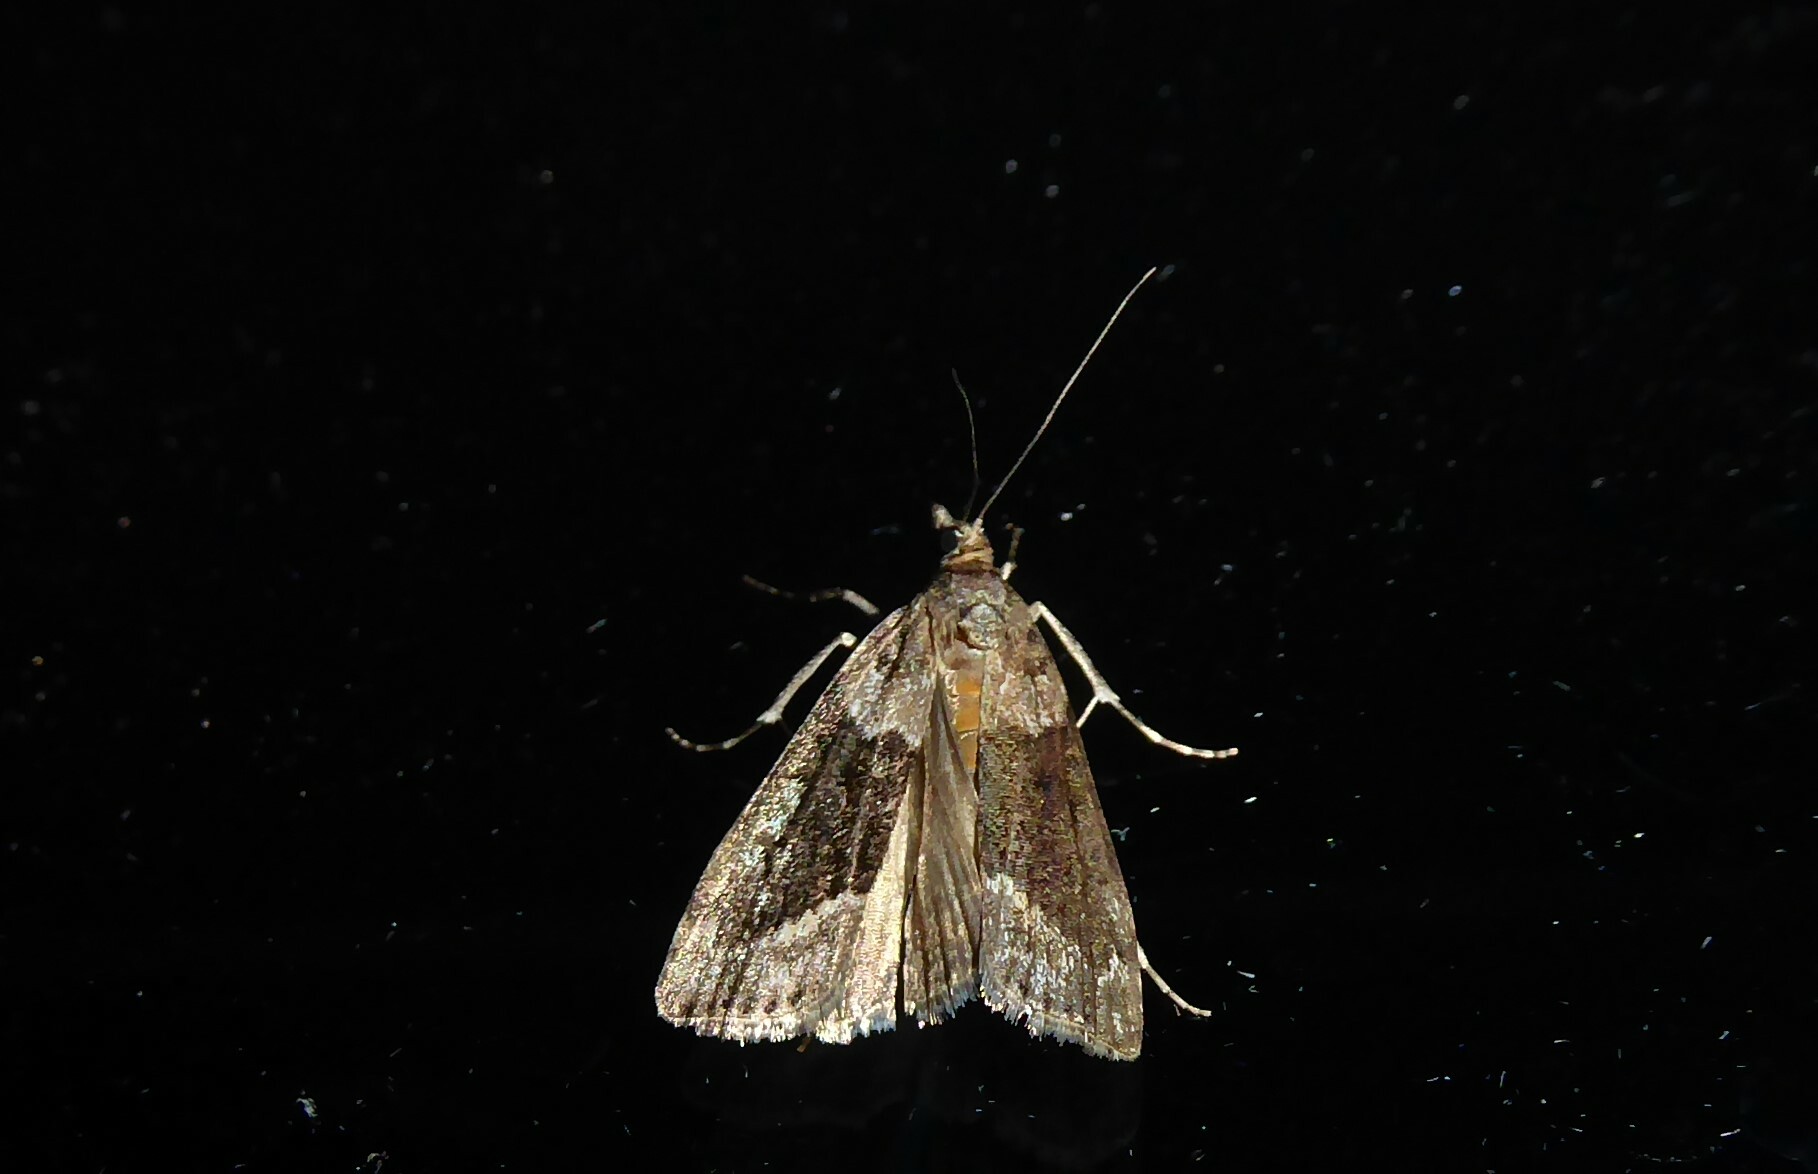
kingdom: Animalia
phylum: Arthropoda
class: Insecta
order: Lepidoptera
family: Crambidae
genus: Eudonia
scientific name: Eudonia submarginalis
